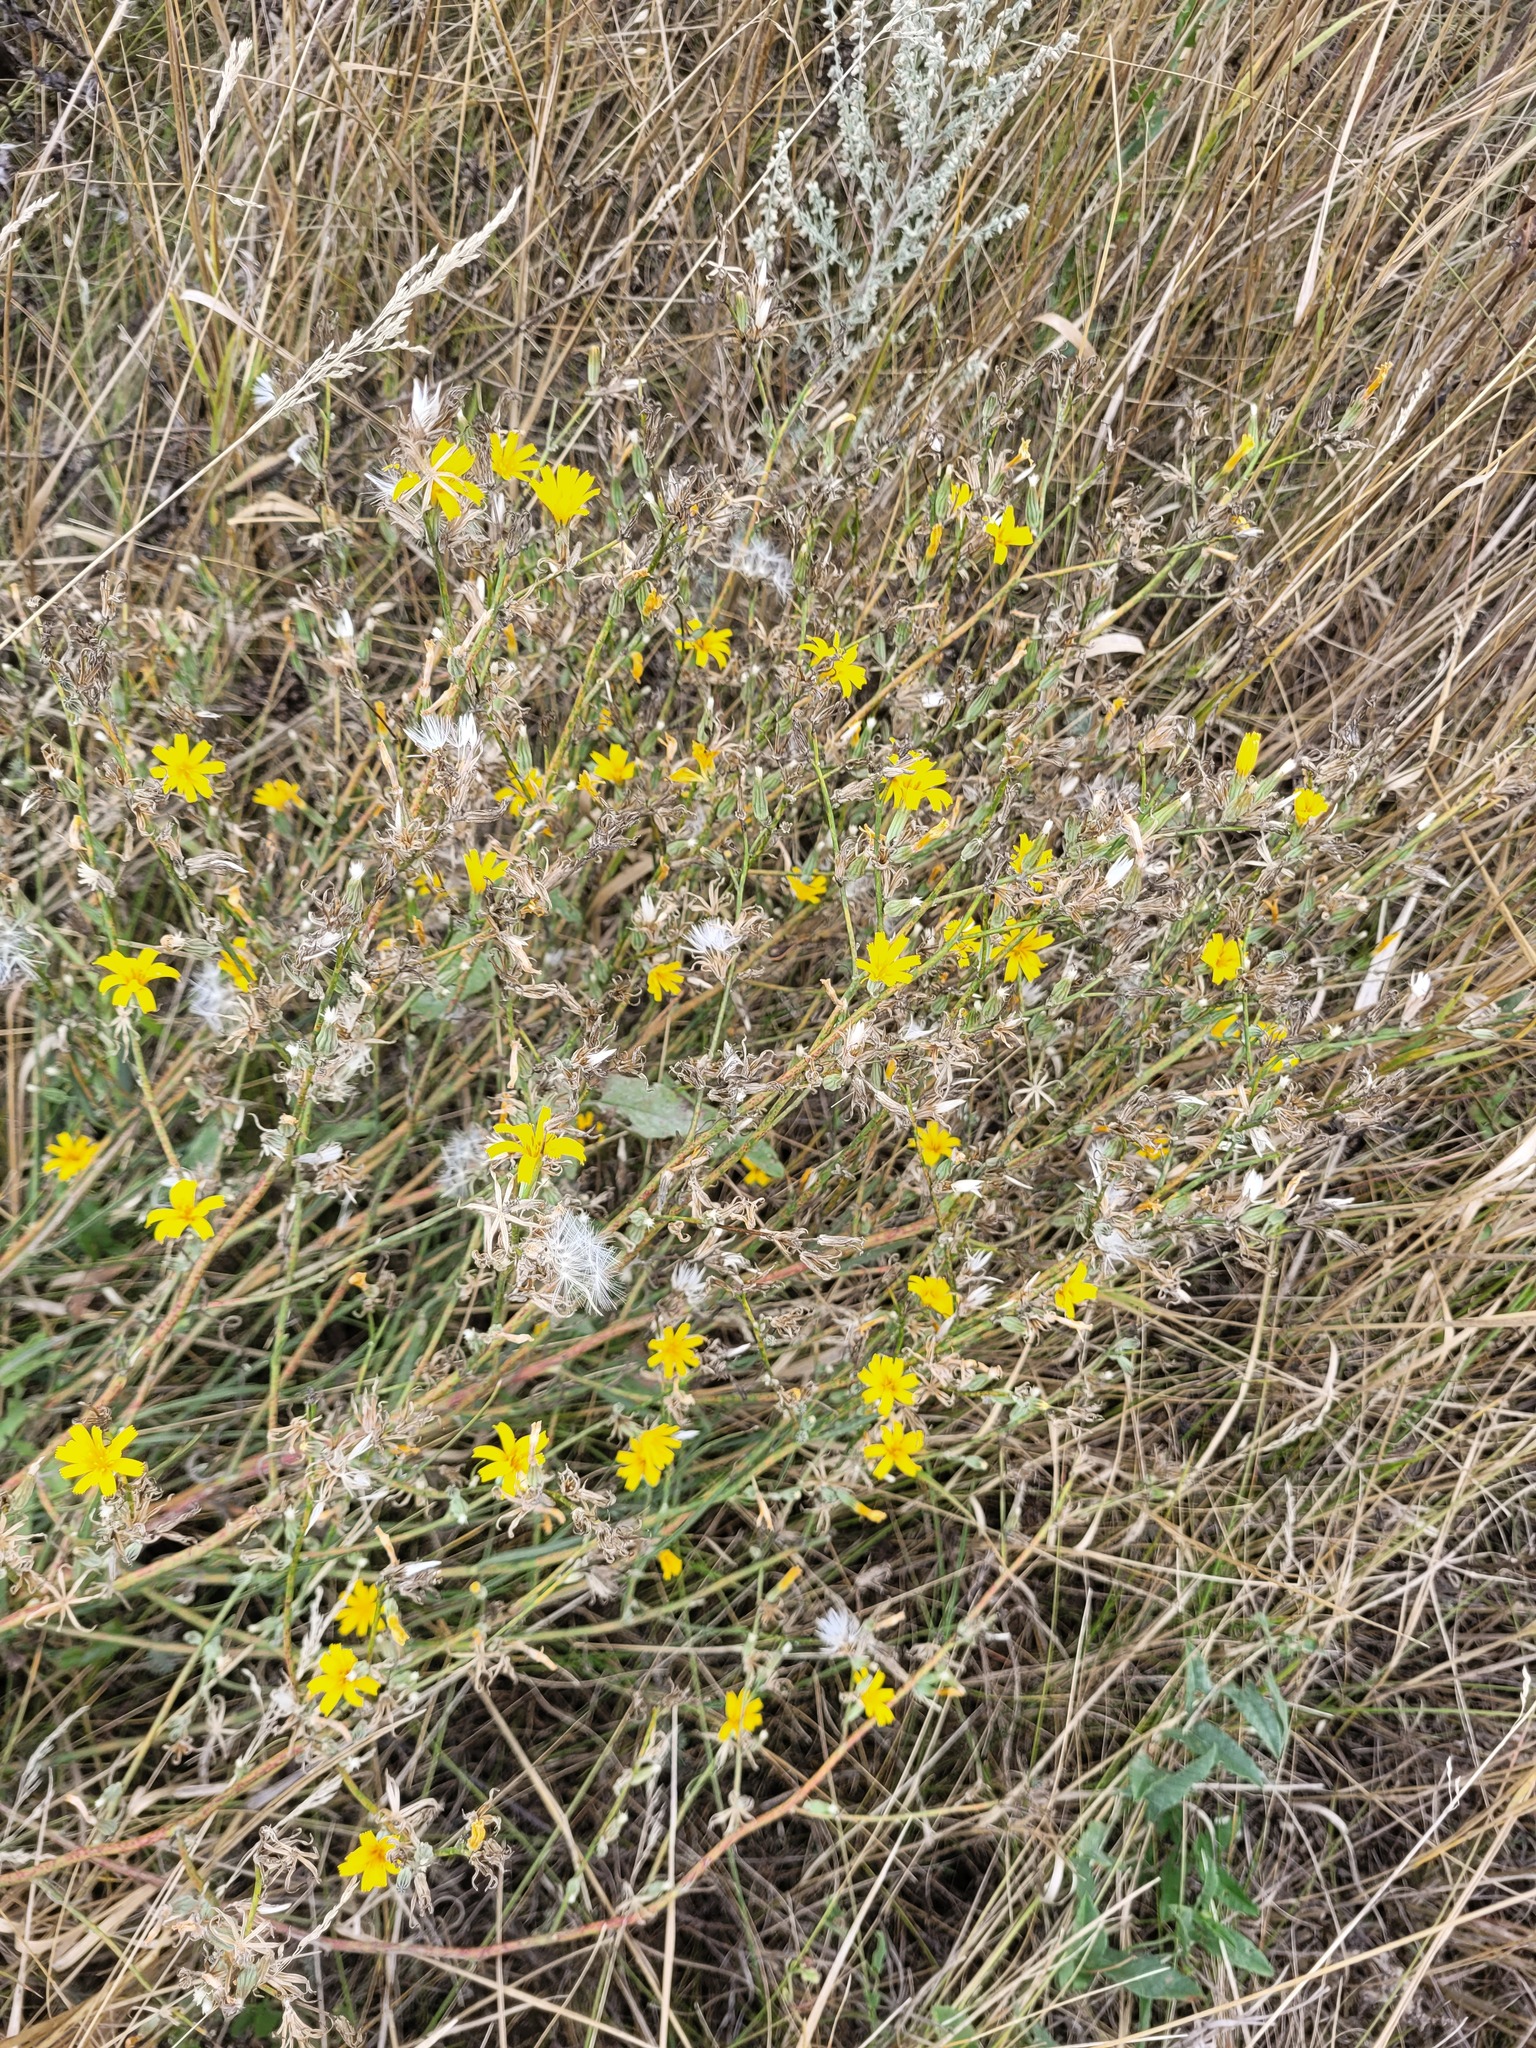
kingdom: Plantae
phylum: Tracheophyta
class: Magnoliopsida
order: Asterales
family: Asteraceae
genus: Chondrilla
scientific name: Chondrilla juncea
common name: Skeleton weed
